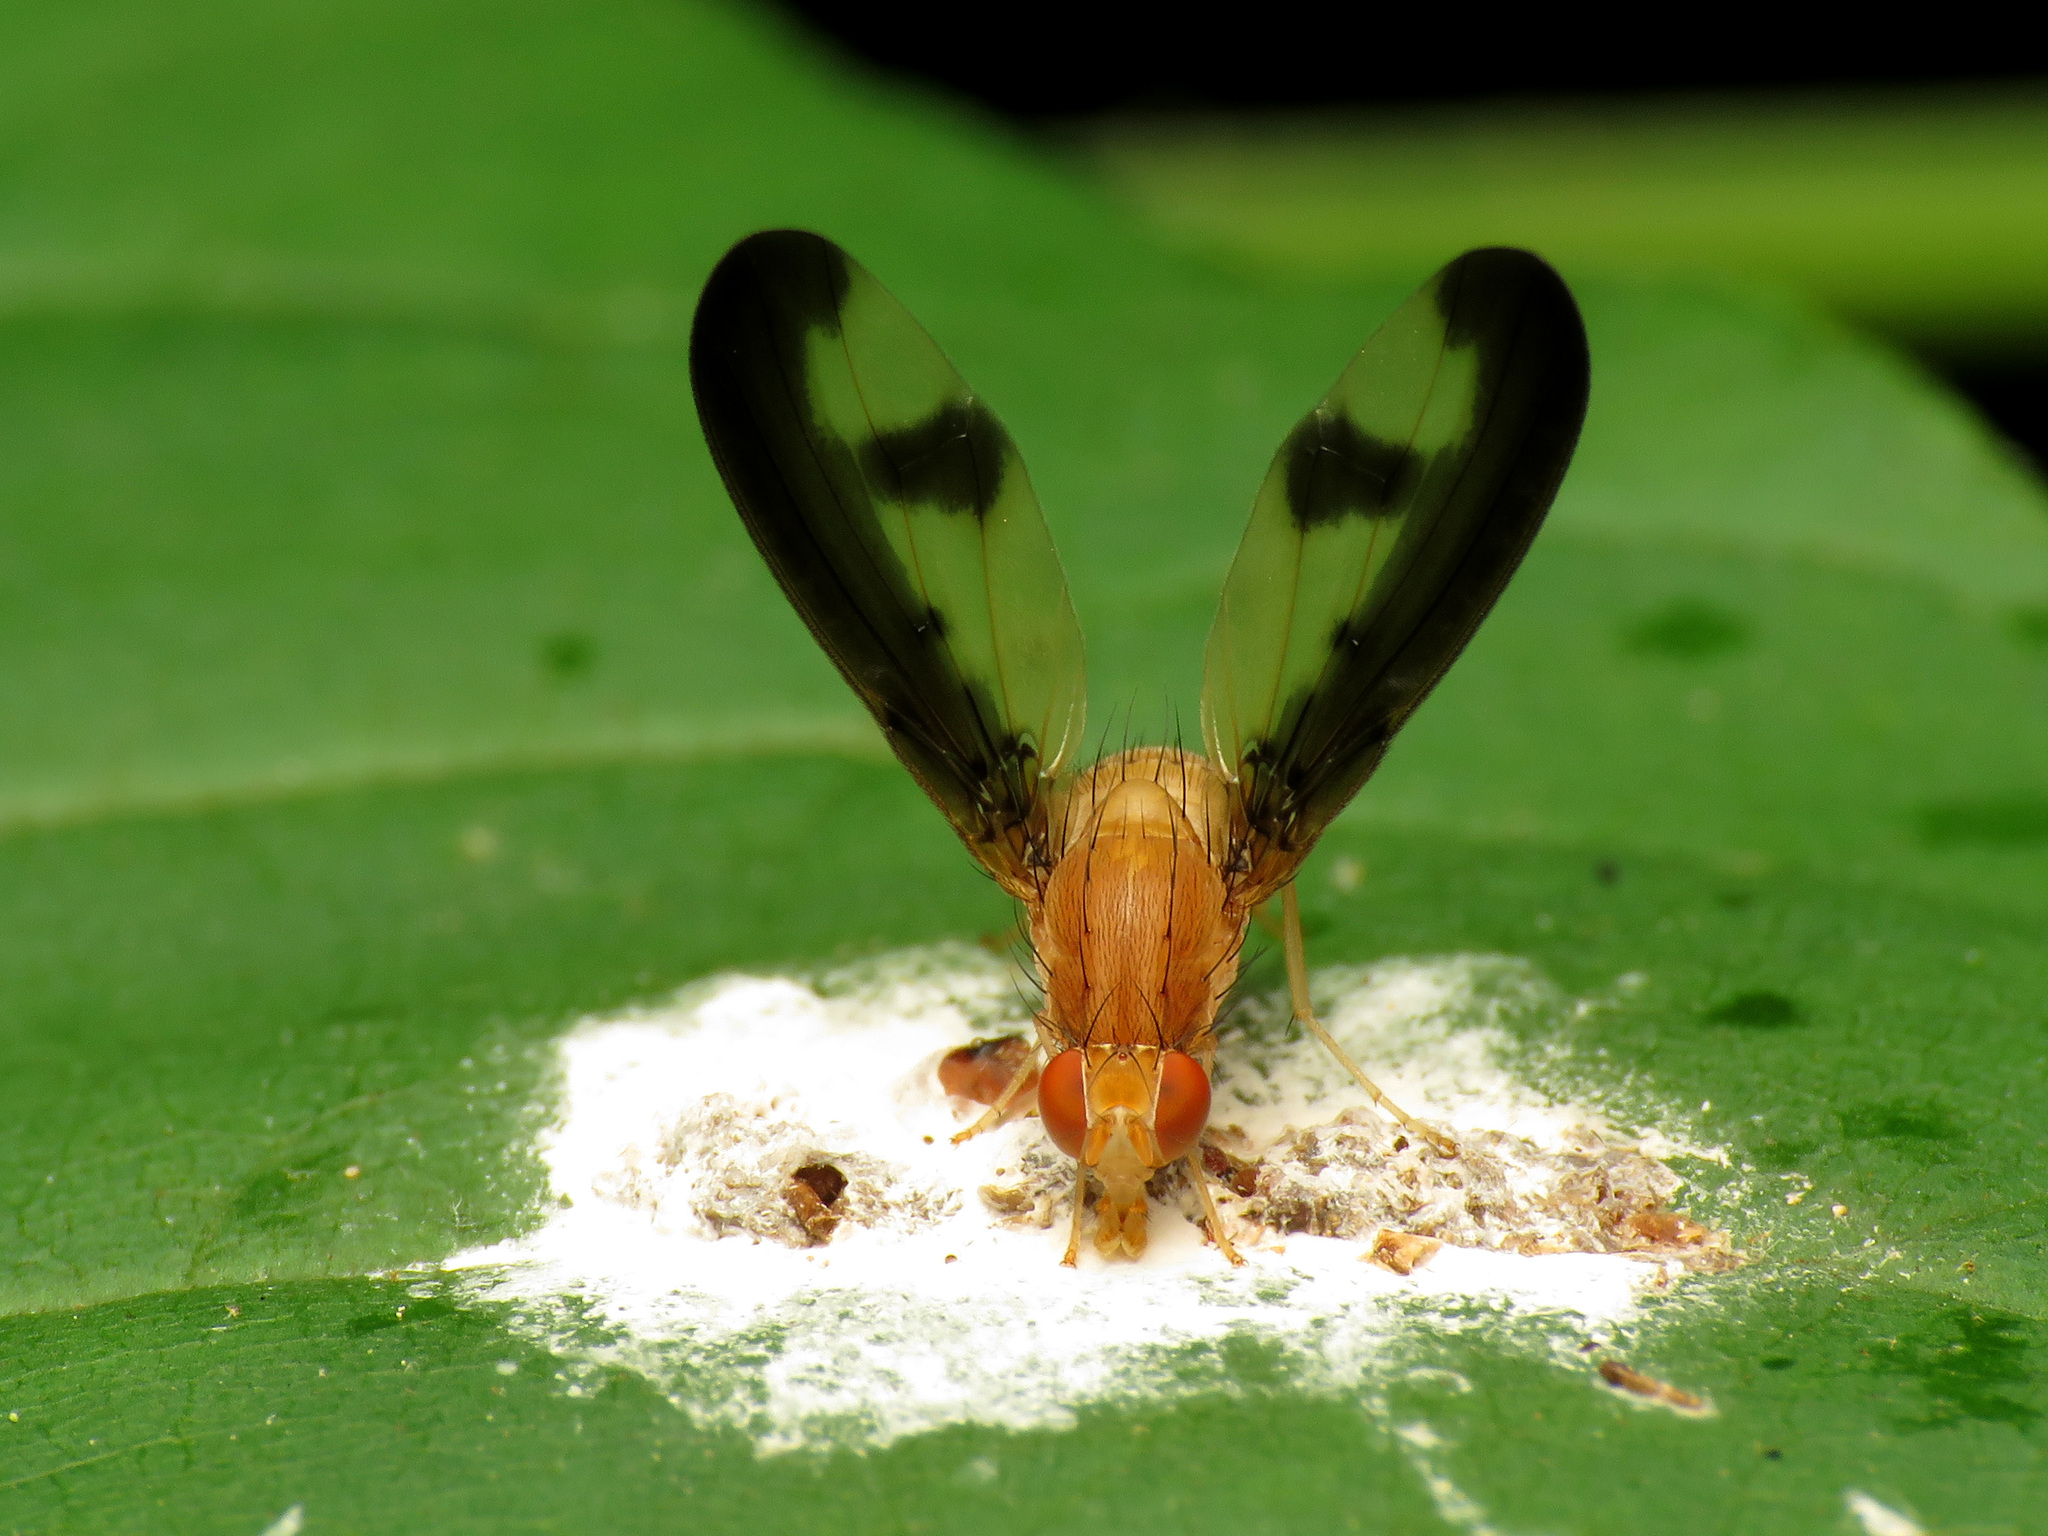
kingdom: Animalia
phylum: Arthropoda
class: Insecta
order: Diptera
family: Pallopteridae
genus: Toxonevra
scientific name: Toxonevra superba
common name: Antlered flutter fly
